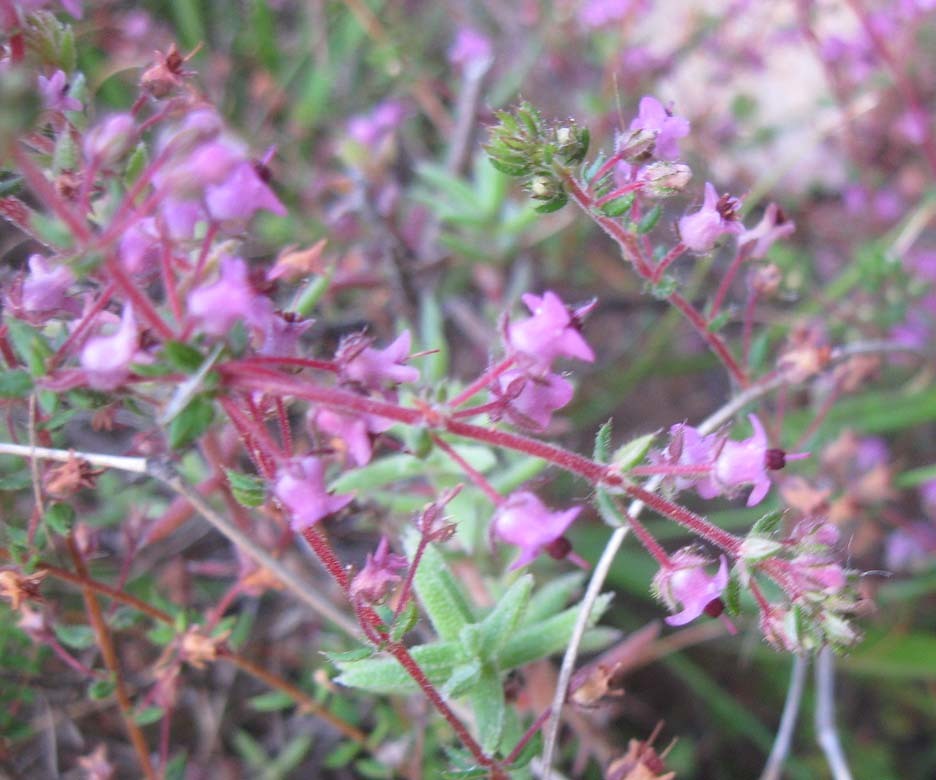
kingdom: Plantae
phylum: Tracheophyta
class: Magnoliopsida
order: Ericales
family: Ericaceae
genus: Erica
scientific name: Erica thimifolia
